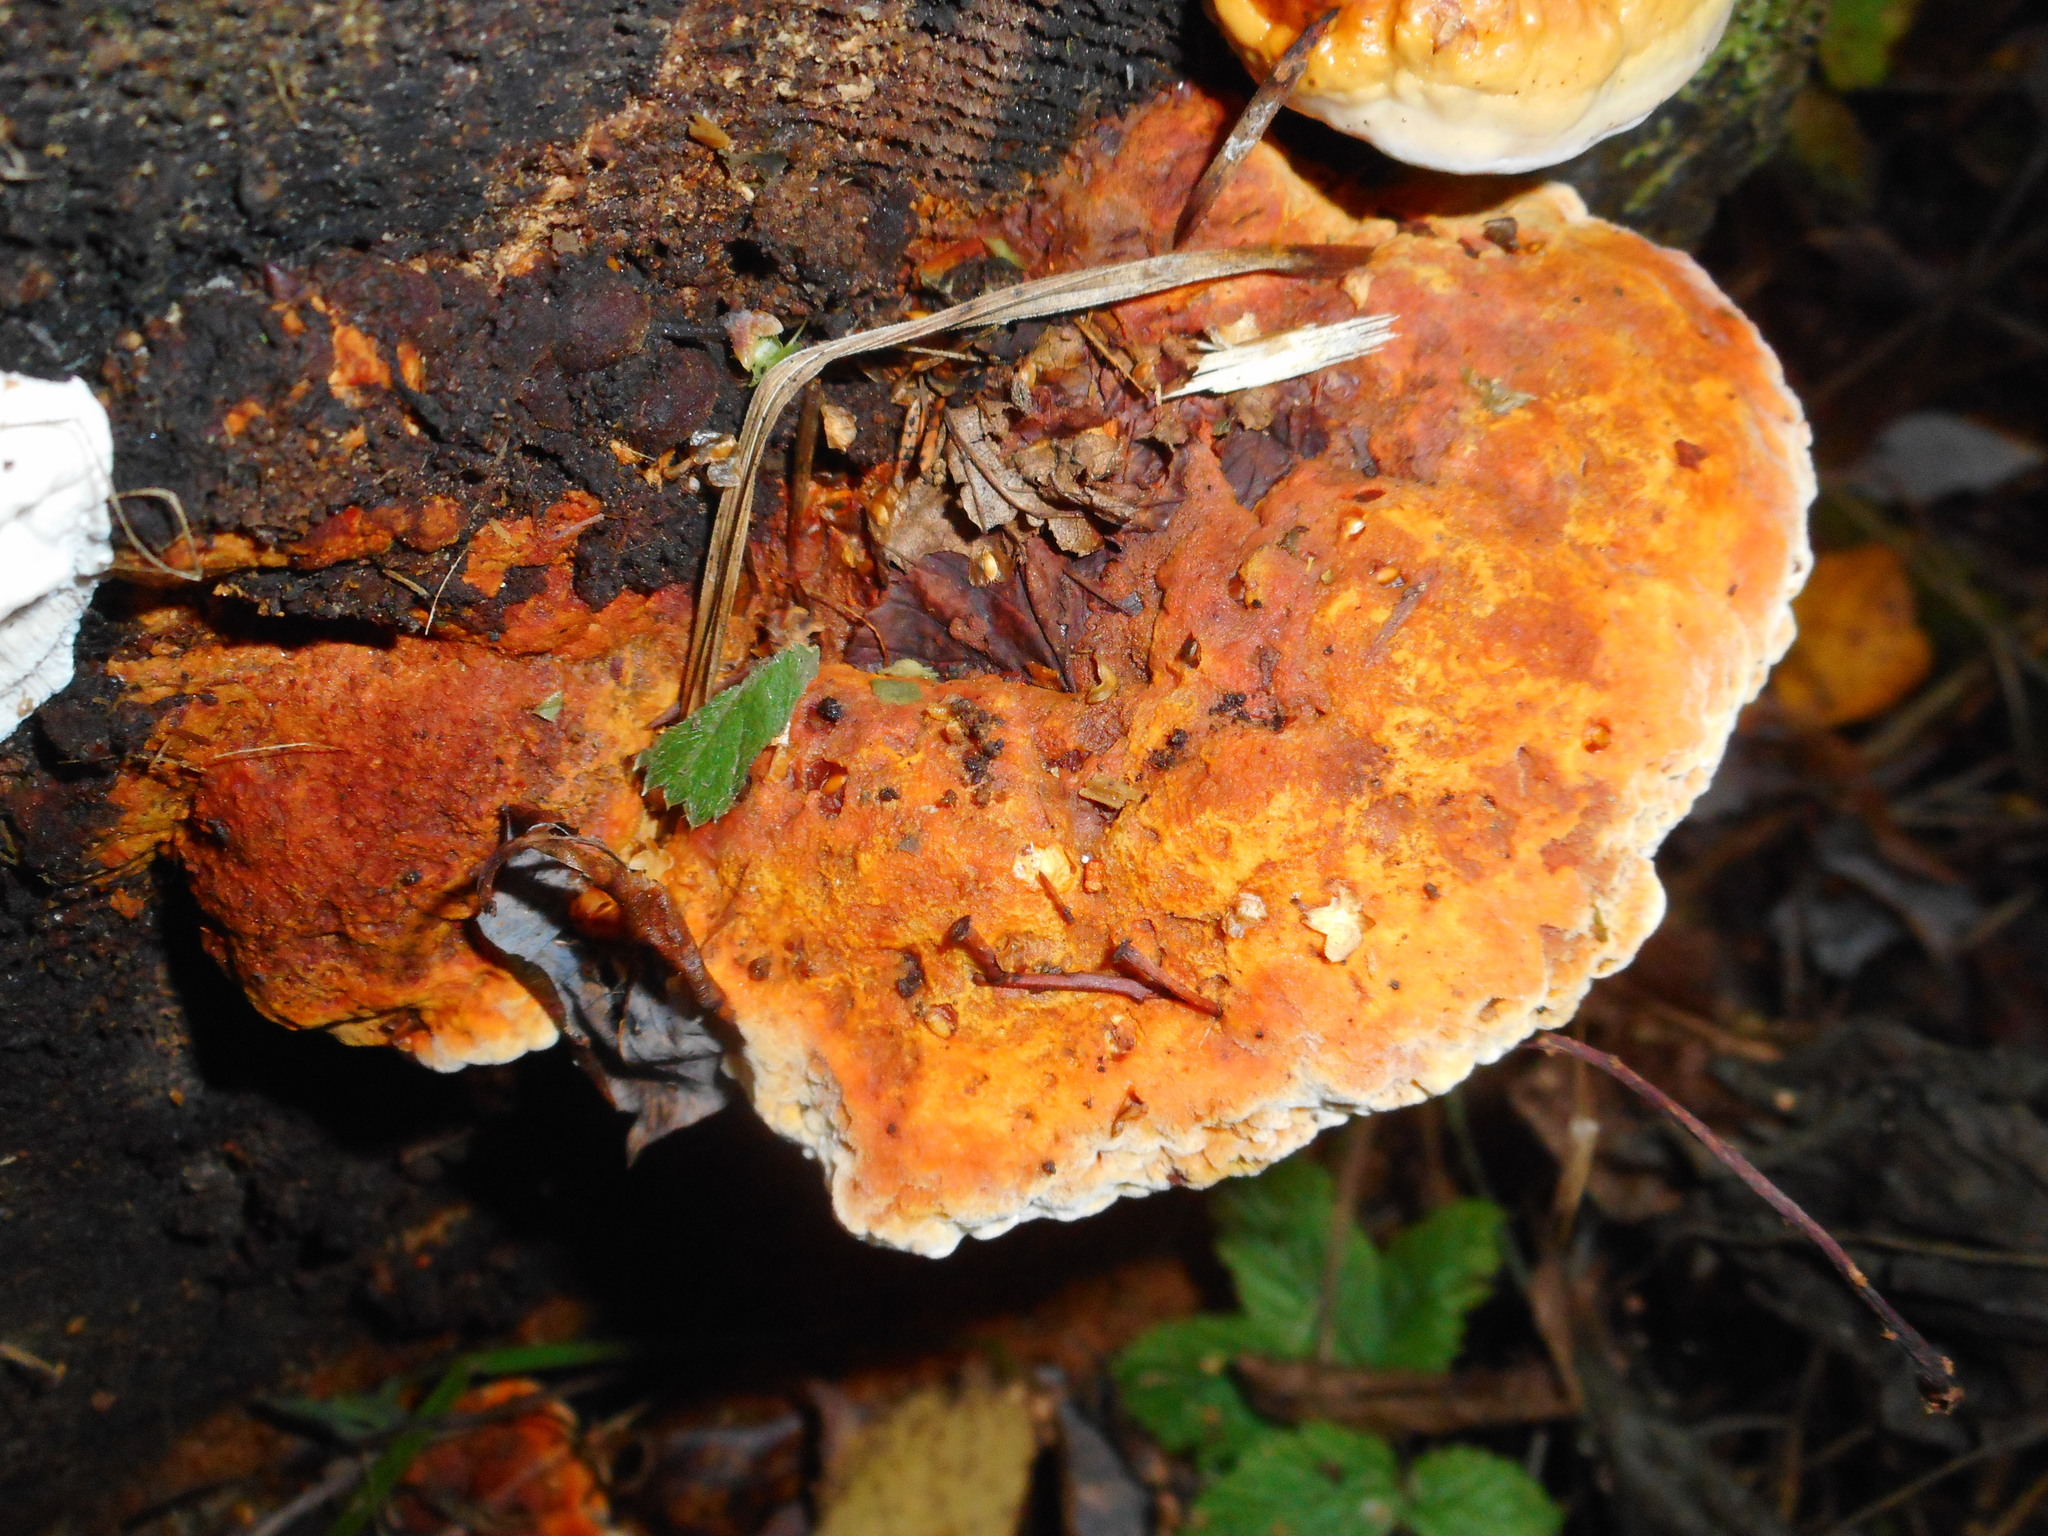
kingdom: Fungi
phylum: Basidiomycota
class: Agaricomycetes
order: Gloeophyllales
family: Gloeophyllaceae
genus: Gloeophyllum
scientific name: Gloeophyllum odoratum
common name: Anise mazegill
